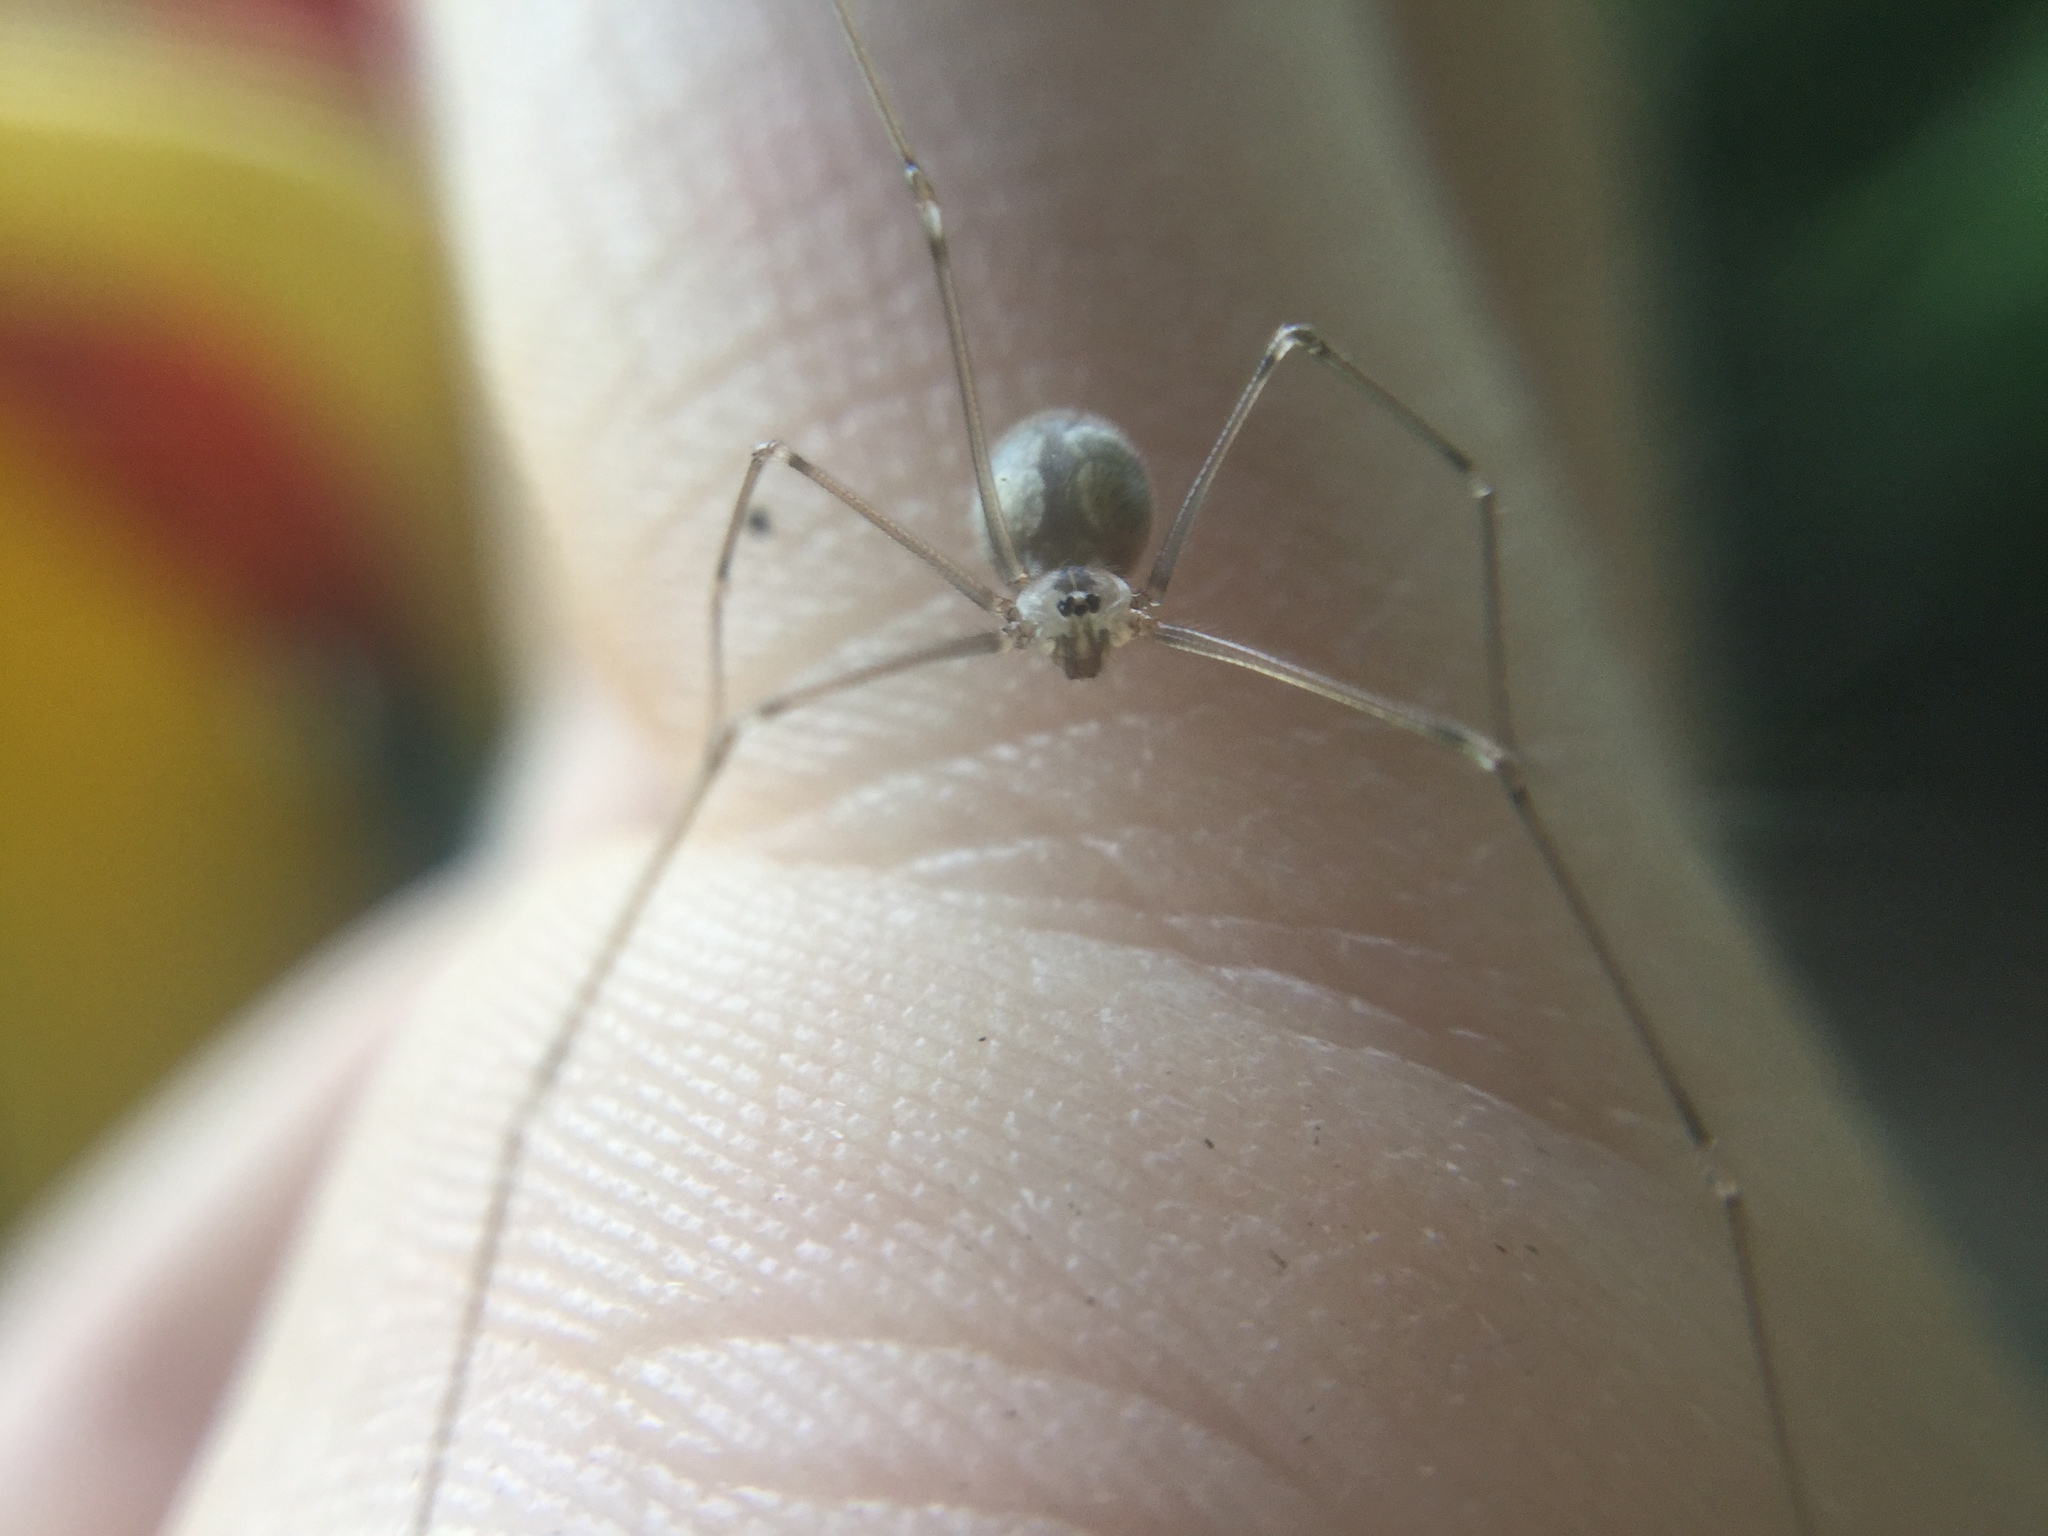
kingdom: Animalia
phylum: Arthropoda
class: Arachnida
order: Araneae
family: Pholcidae
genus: Pholcus
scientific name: Pholcus manueli
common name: Cellar spider
